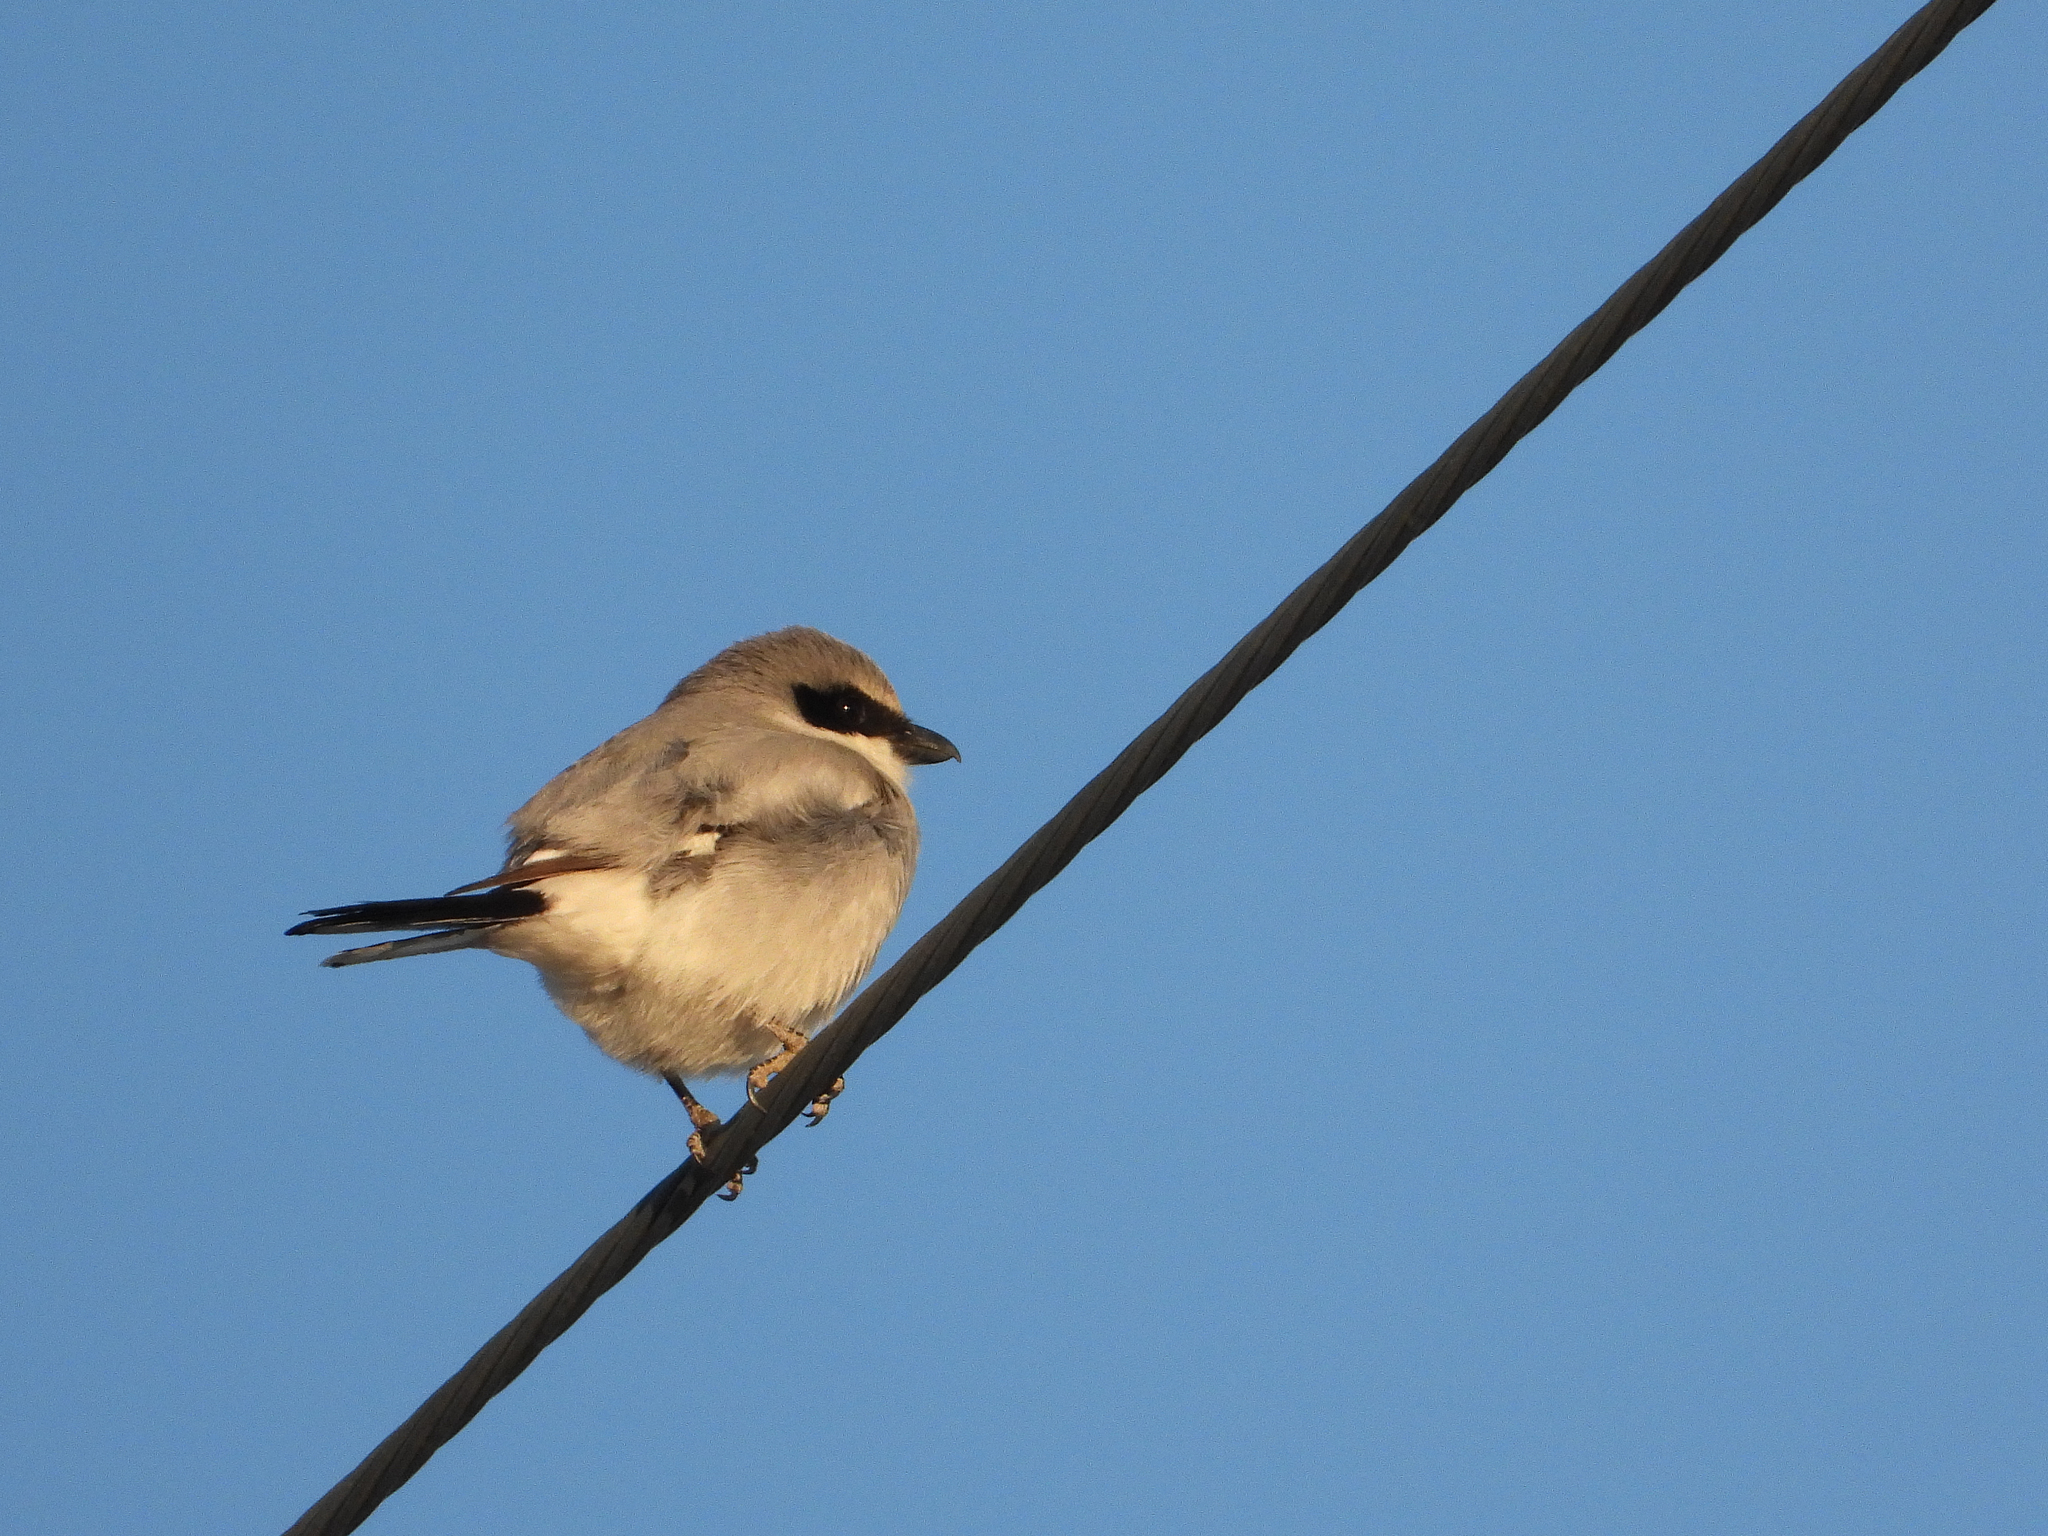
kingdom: Animalia
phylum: Chordata
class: Aves
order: Passeriformes
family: Laniidae
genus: Lanius
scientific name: Lanius ludovicianus
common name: Loggerhead shrike
